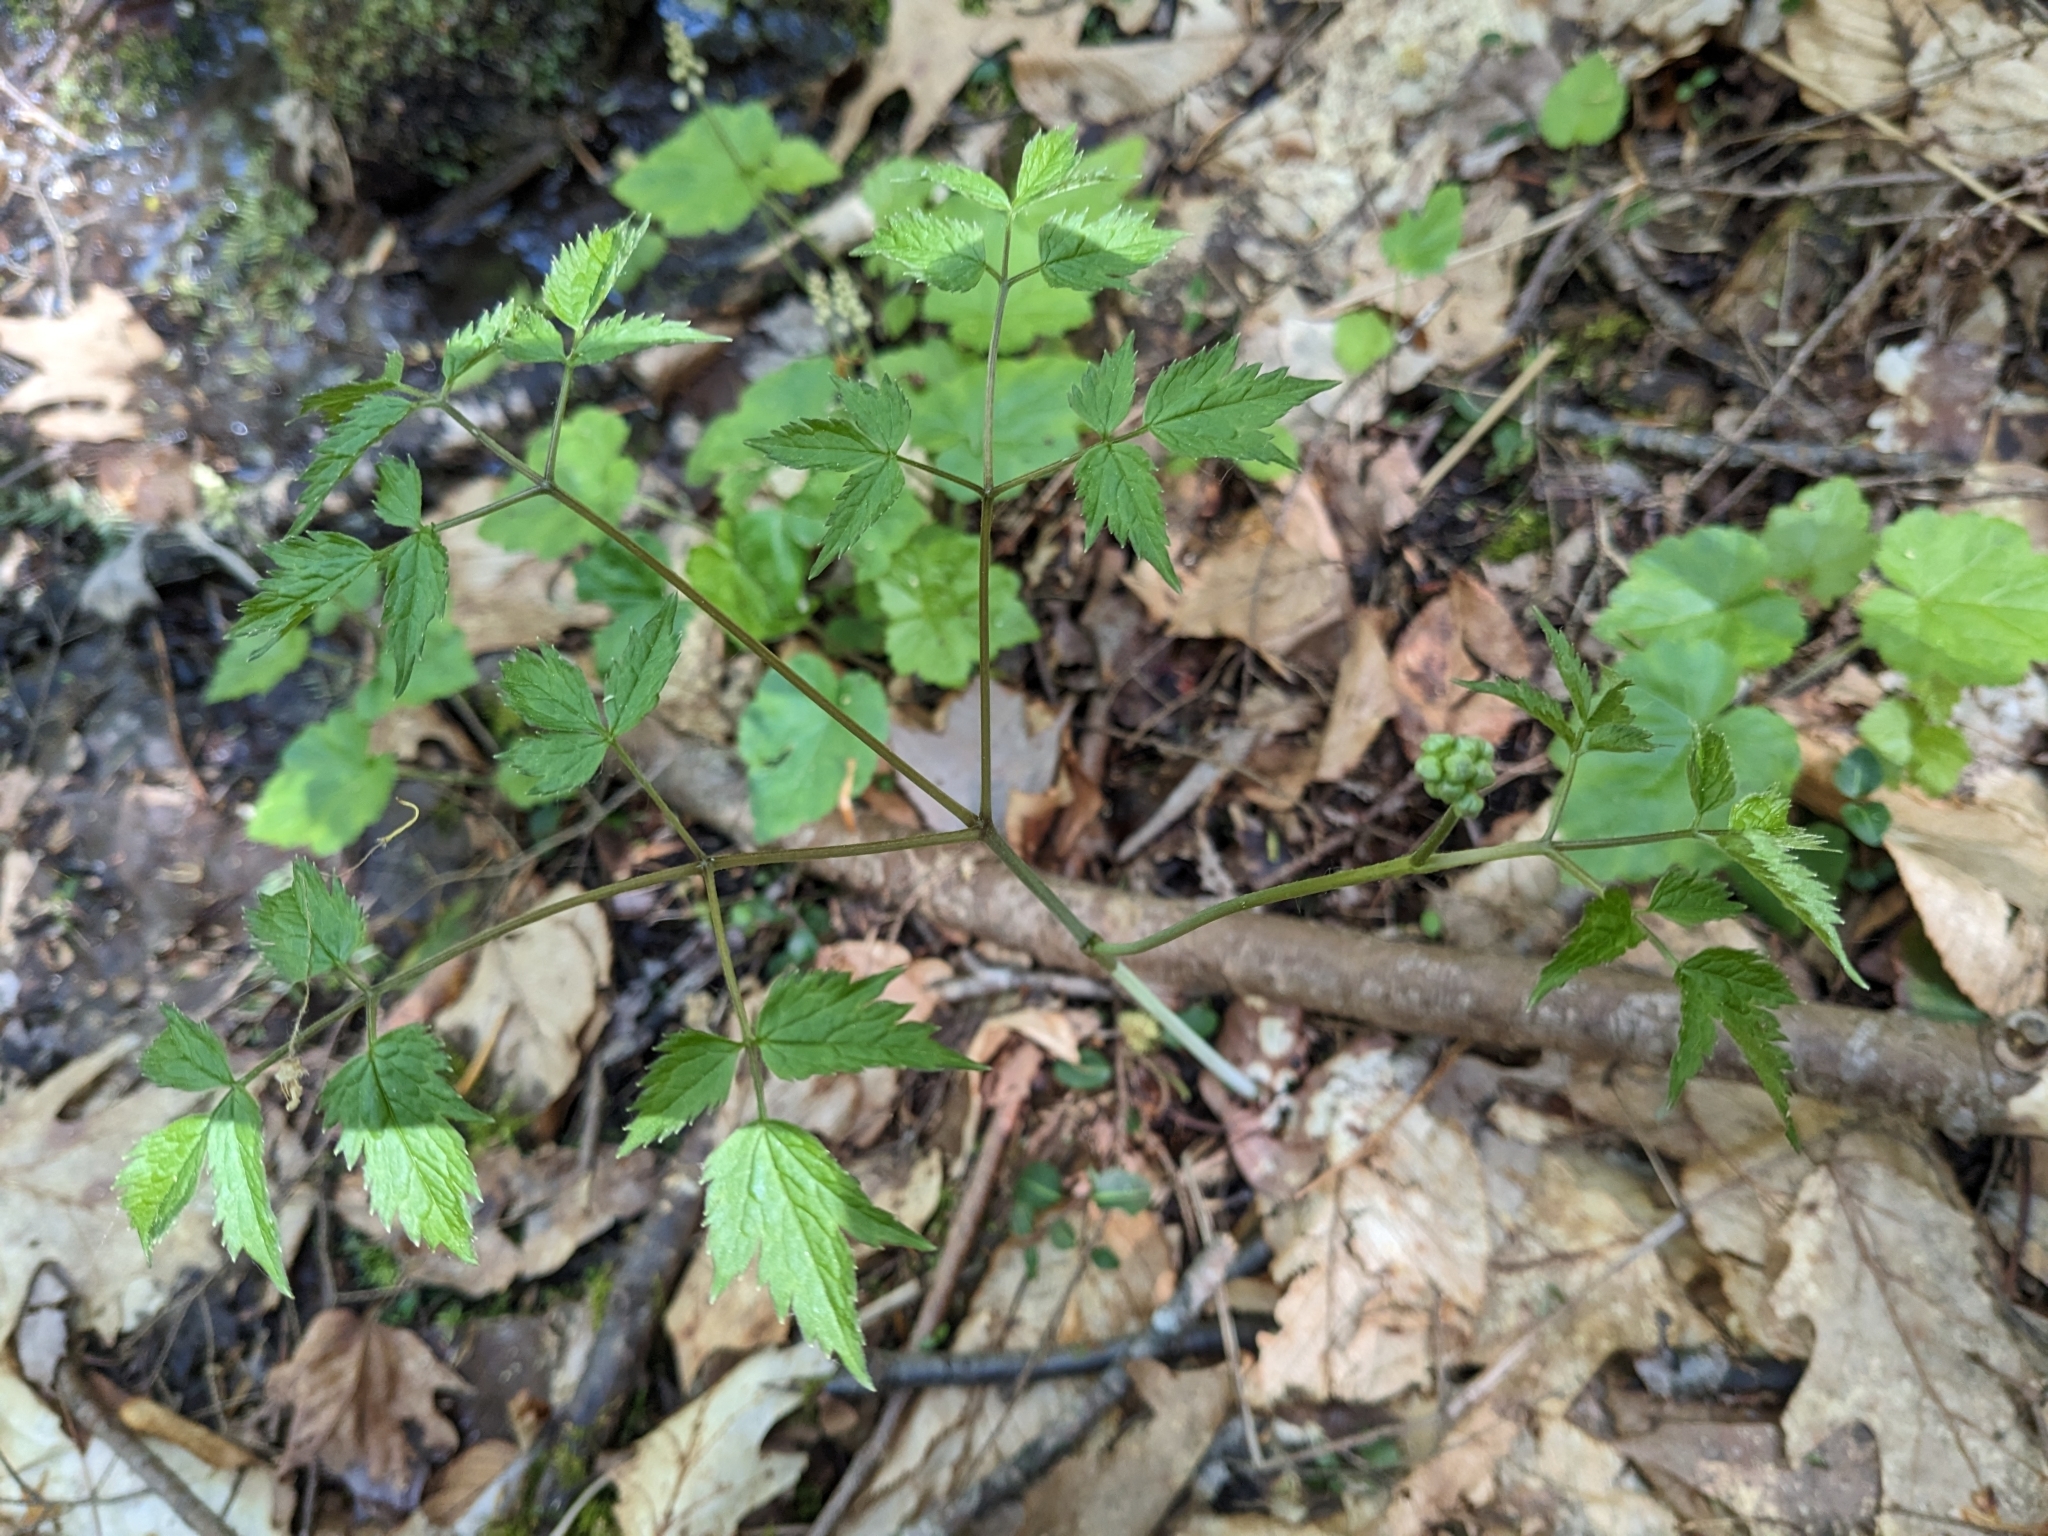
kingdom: Plantae
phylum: Tracheophyta
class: Magnoliopsida
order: Ranunculales
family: Ranunculaceae
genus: Actaea
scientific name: Actaea
